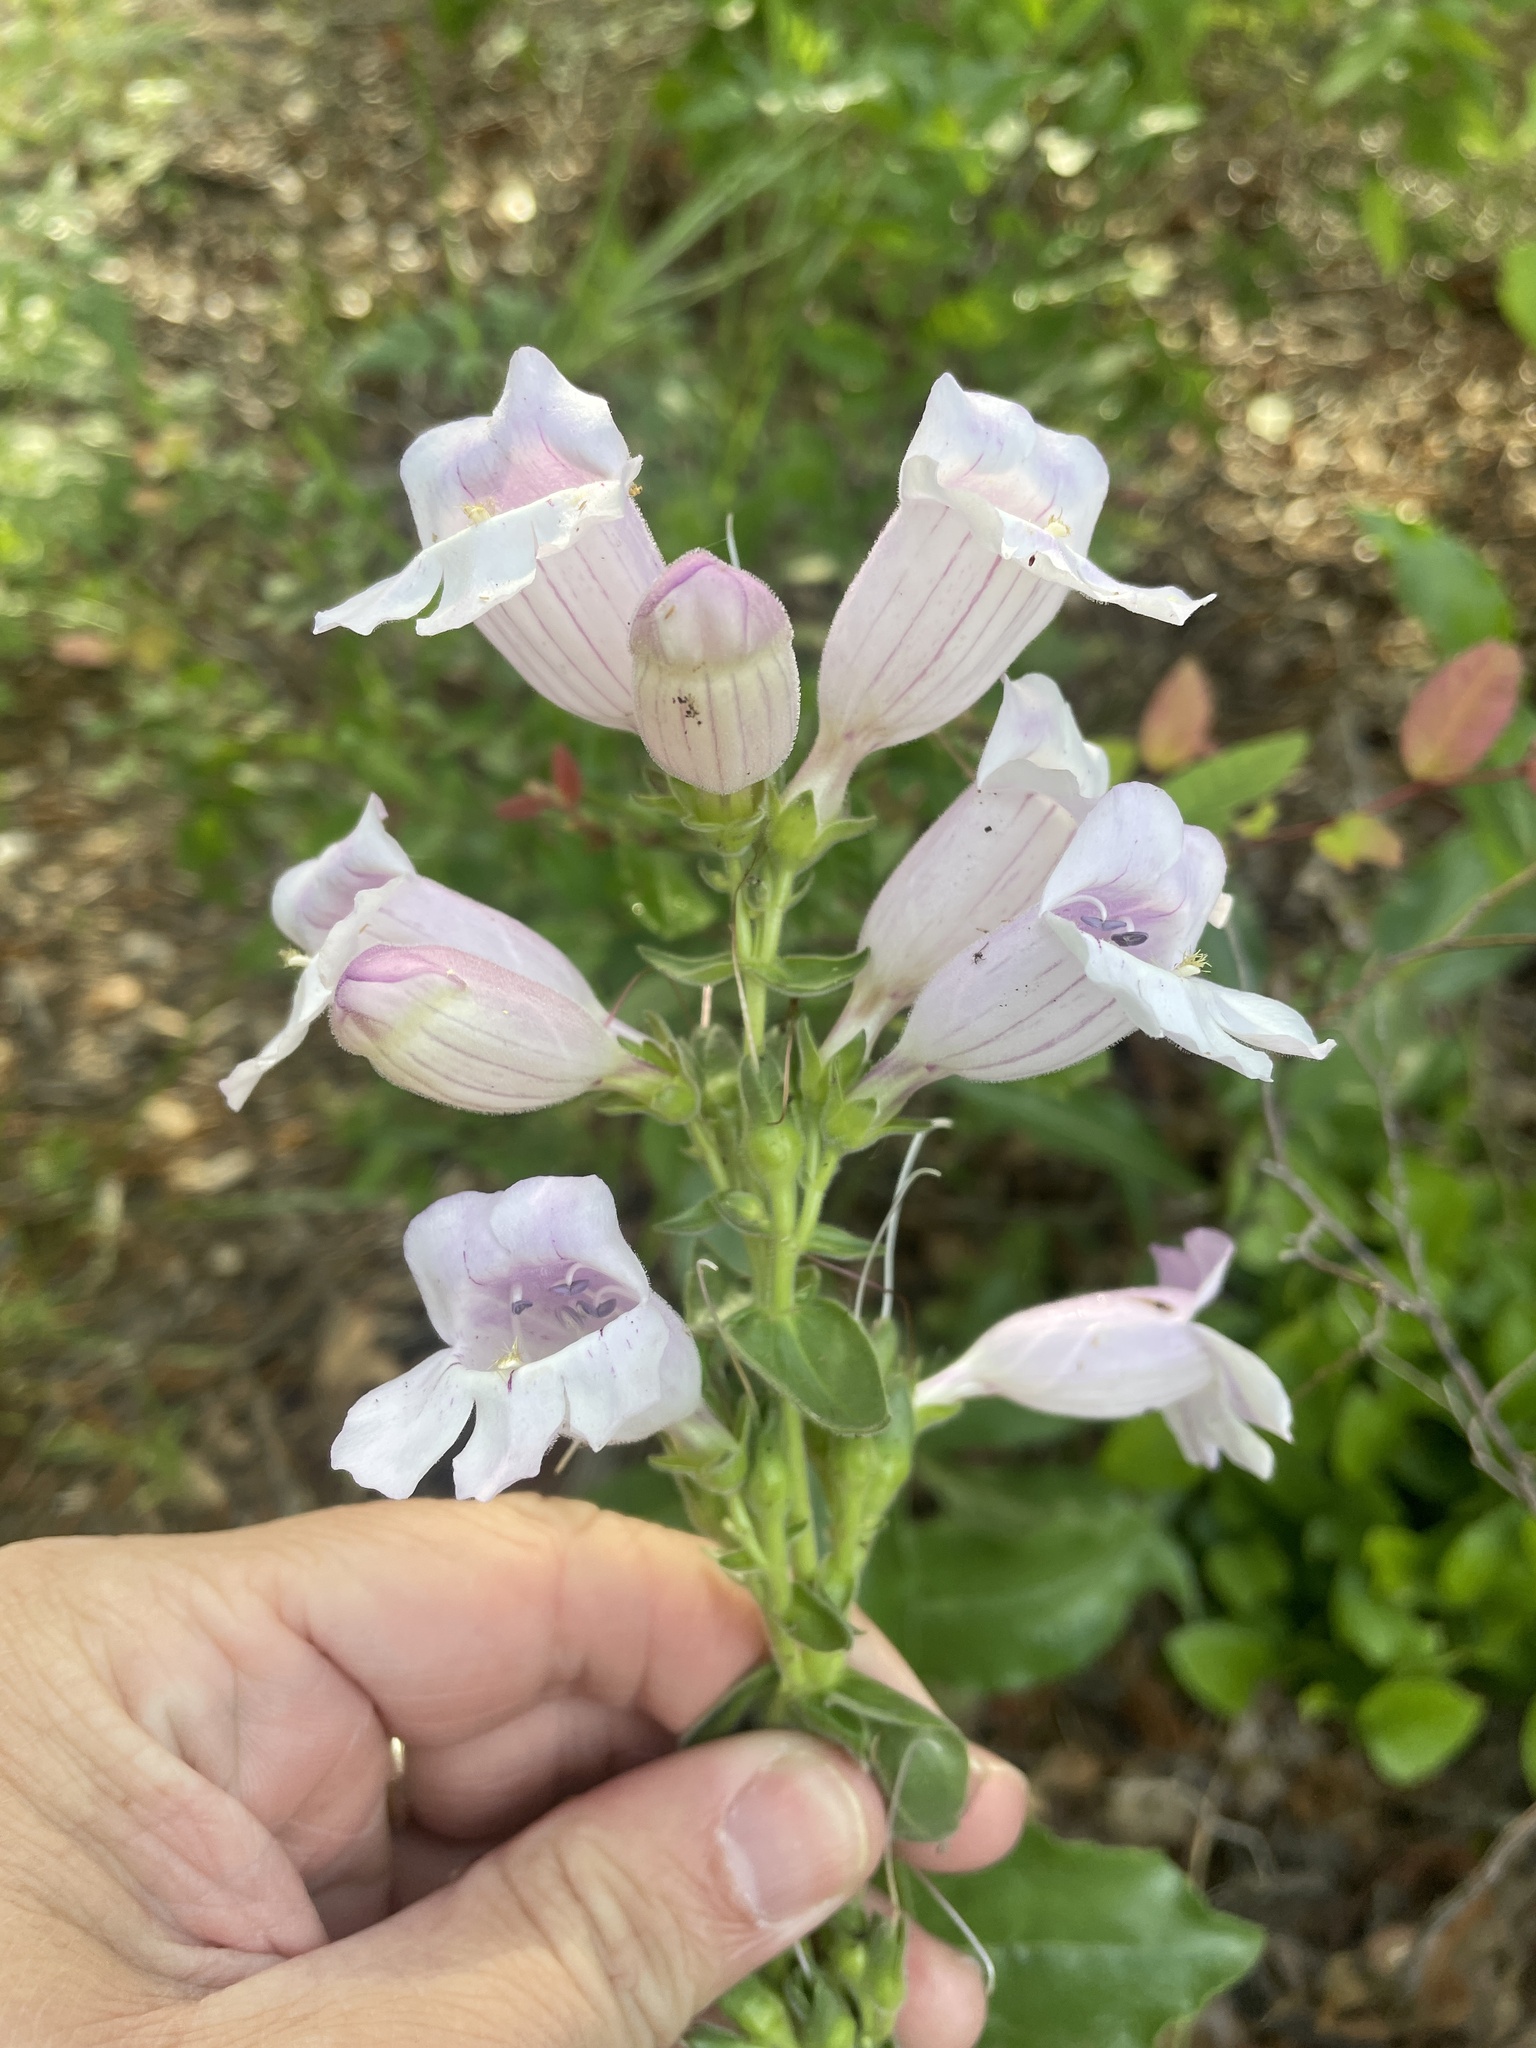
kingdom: Plantae
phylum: Tracheophyta
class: Magnoliopsida
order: Lamiales
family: Plantaginaceae
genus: Penstemon
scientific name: Penstemon cobaea
